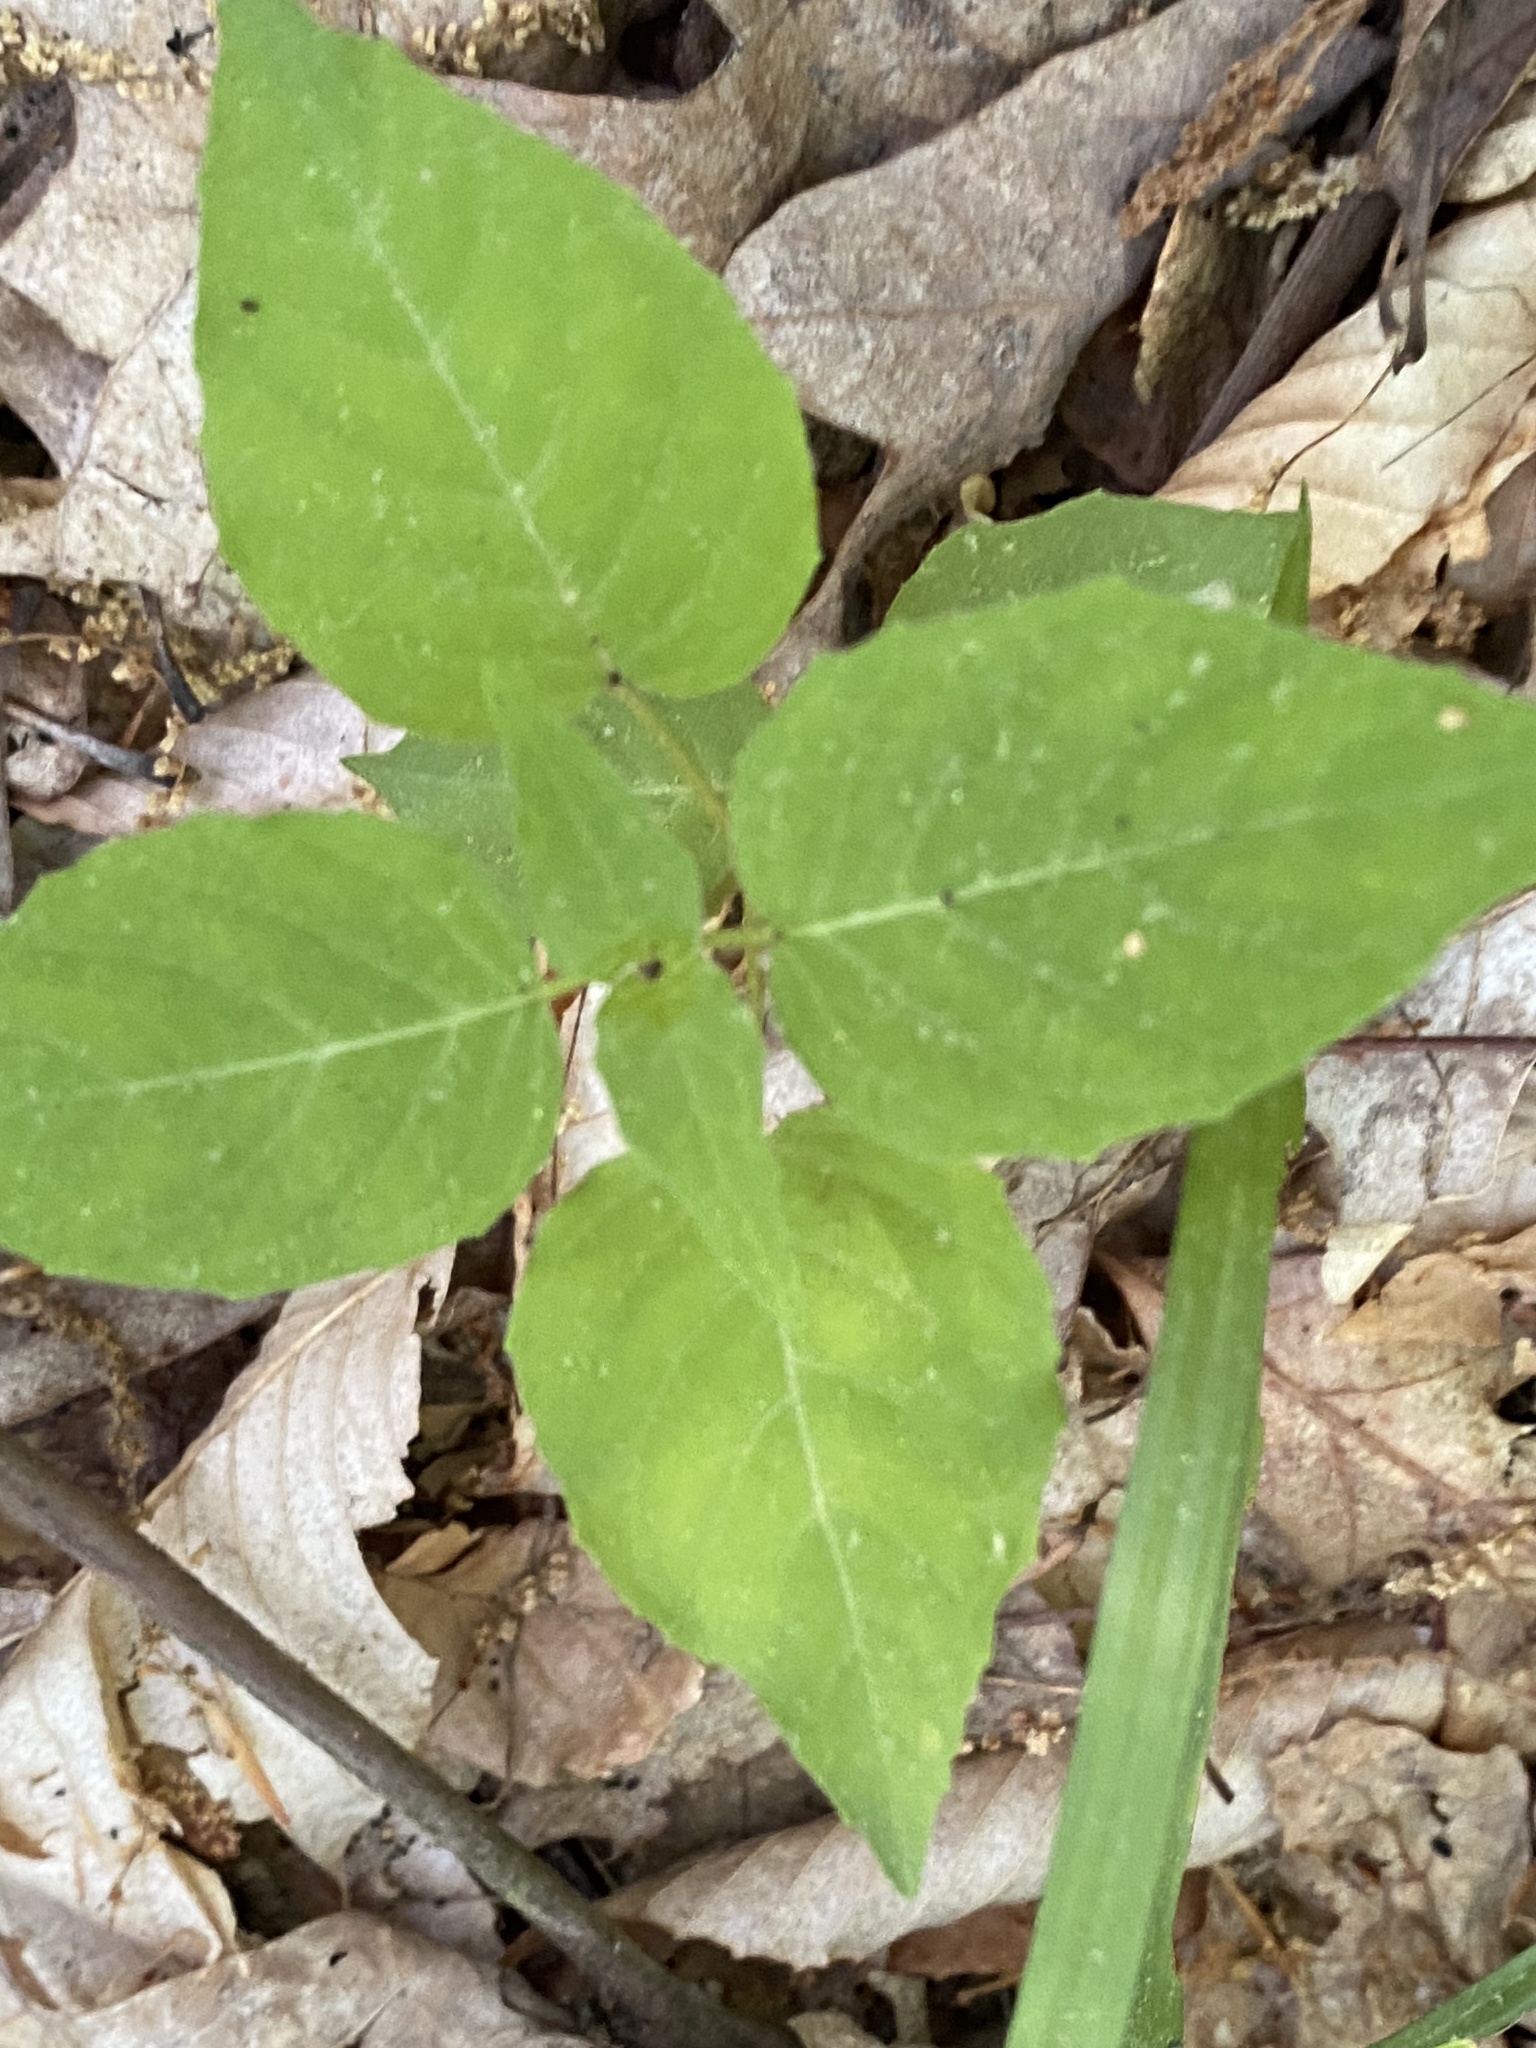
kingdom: Plantae
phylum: Tracheophyta
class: Magnoliopsida
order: Myrtales
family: Onagraceae
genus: Circaea
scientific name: Circaea canadensis
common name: Broad-leaved enchanter's nightshade
